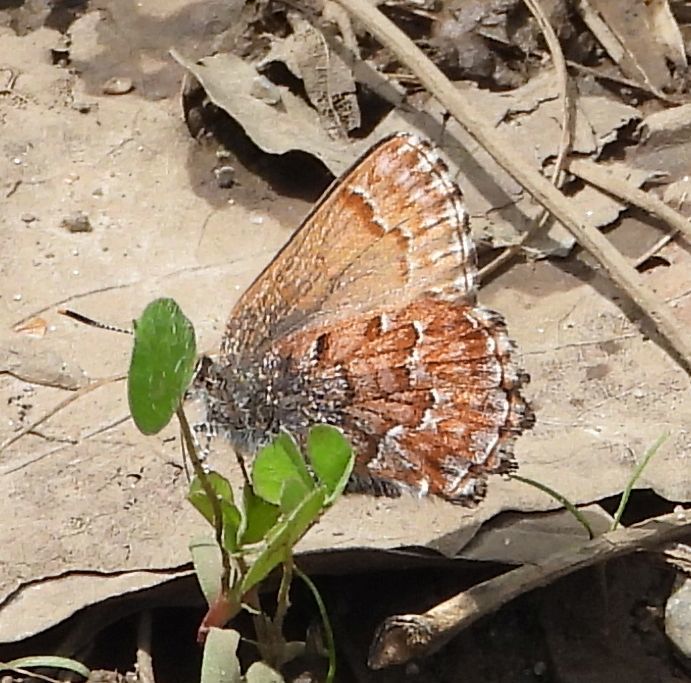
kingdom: Animalia
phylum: Arthropoda
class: Insecta
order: Lepidoptera
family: Lycaenidae
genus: Incisalia
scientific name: Incisalia niphon
